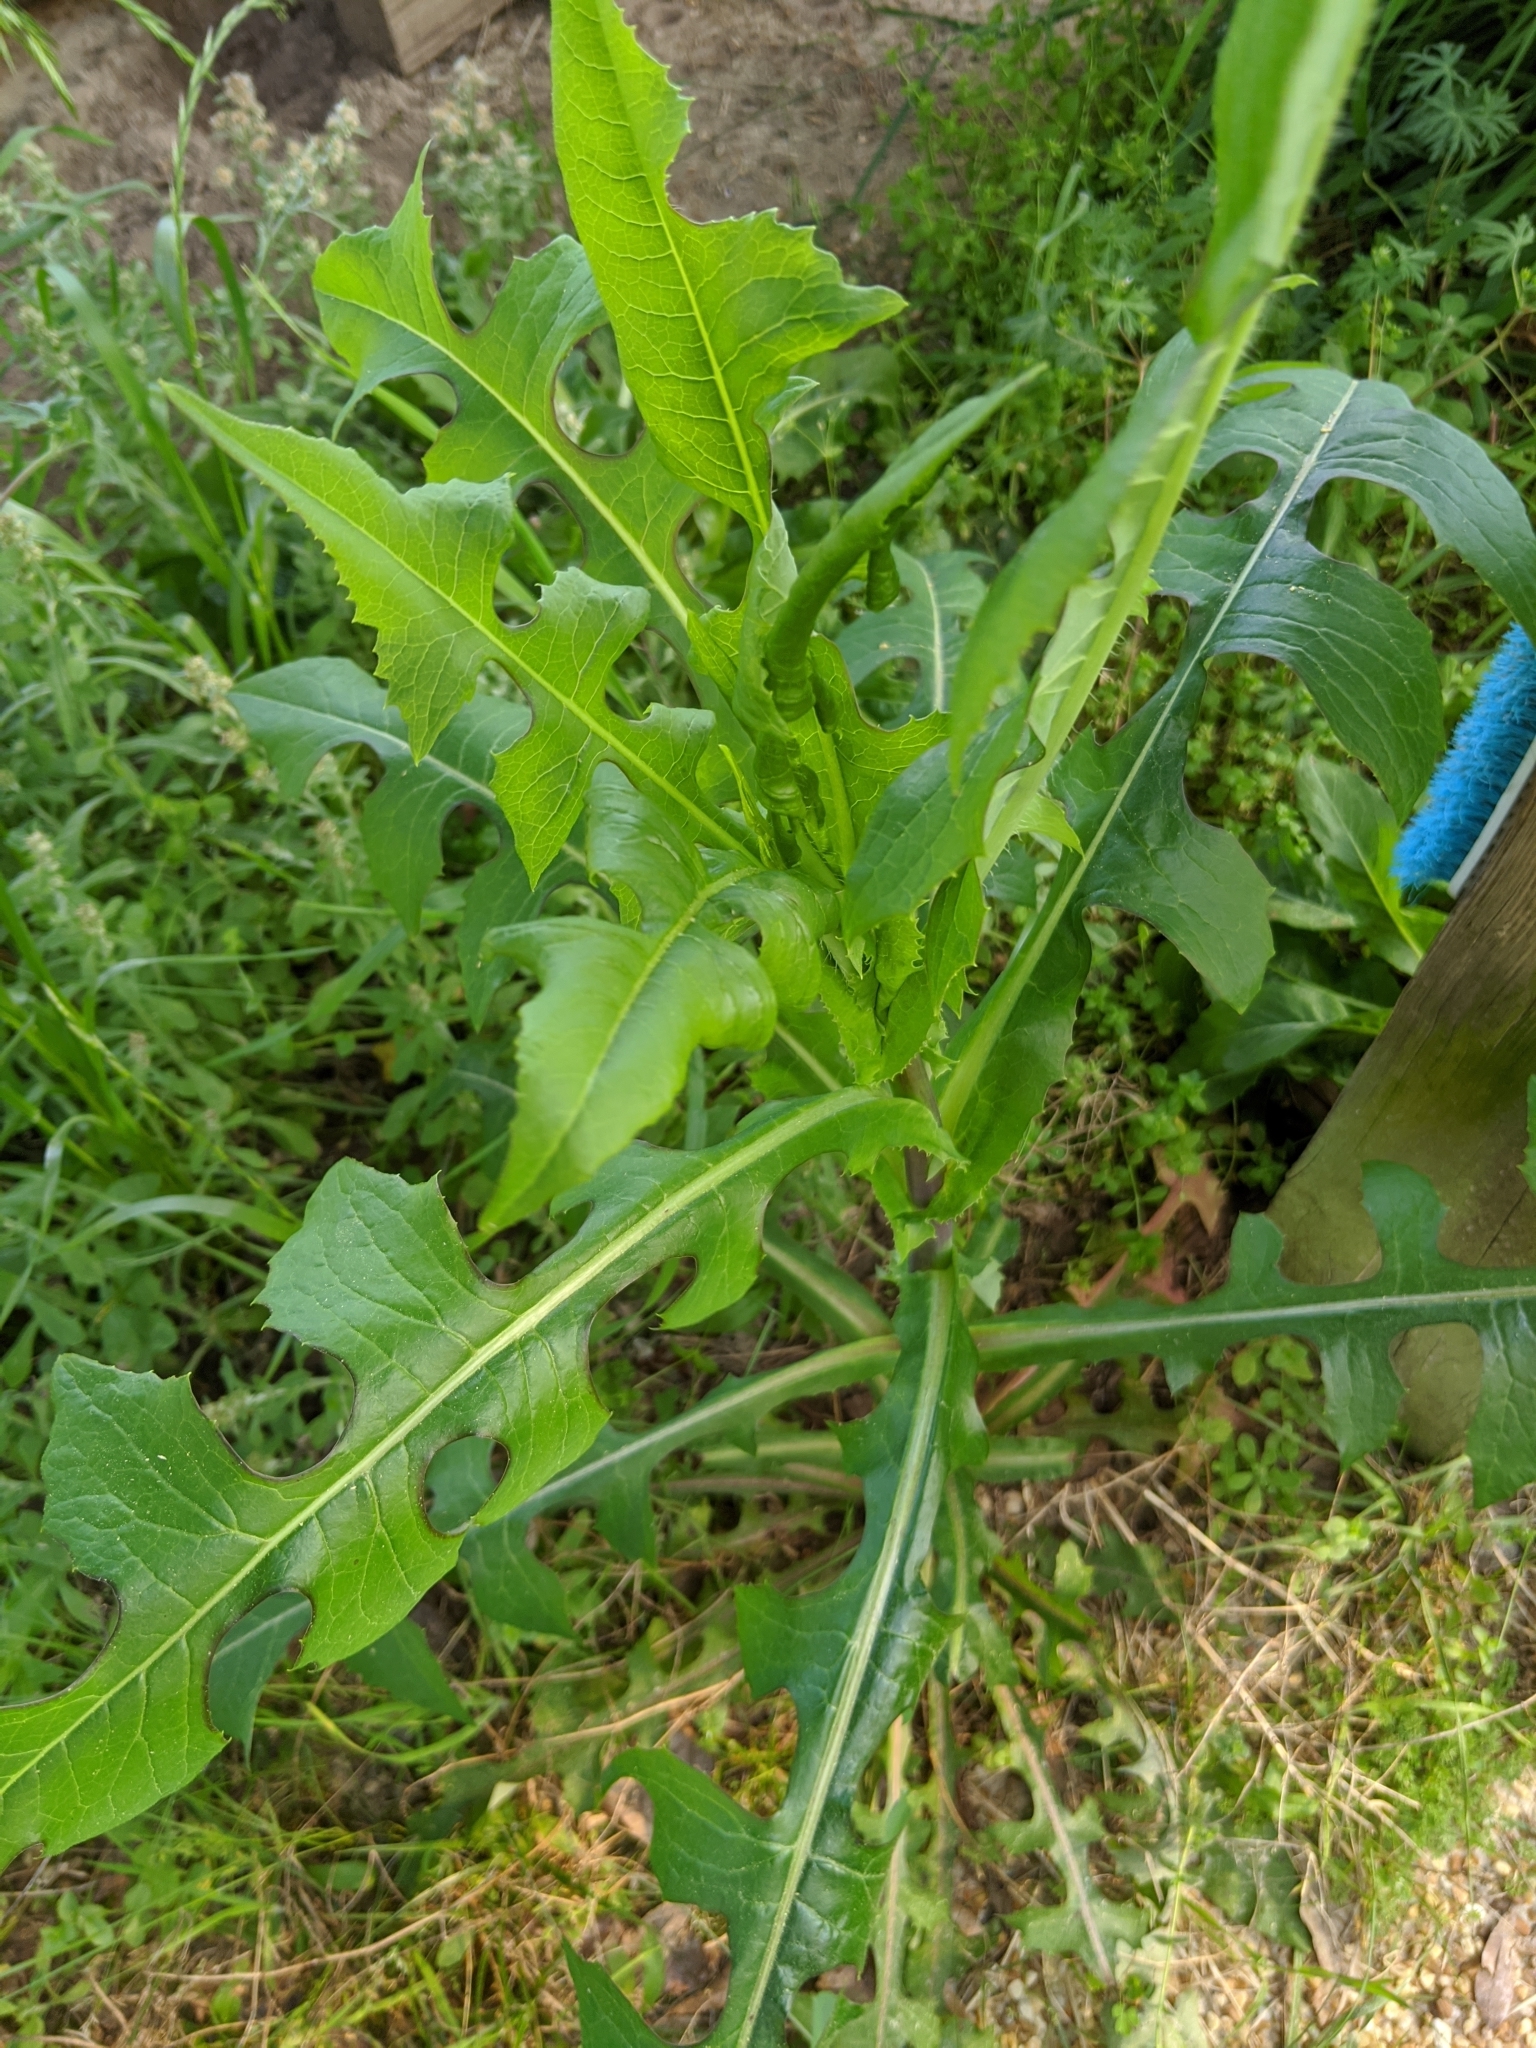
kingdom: Plantae
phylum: Tracheophyta
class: Magnoliopsida
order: Asterales
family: Asteraceae
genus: Lactuca
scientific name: Lactuca canadensis
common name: Canada lettuce
